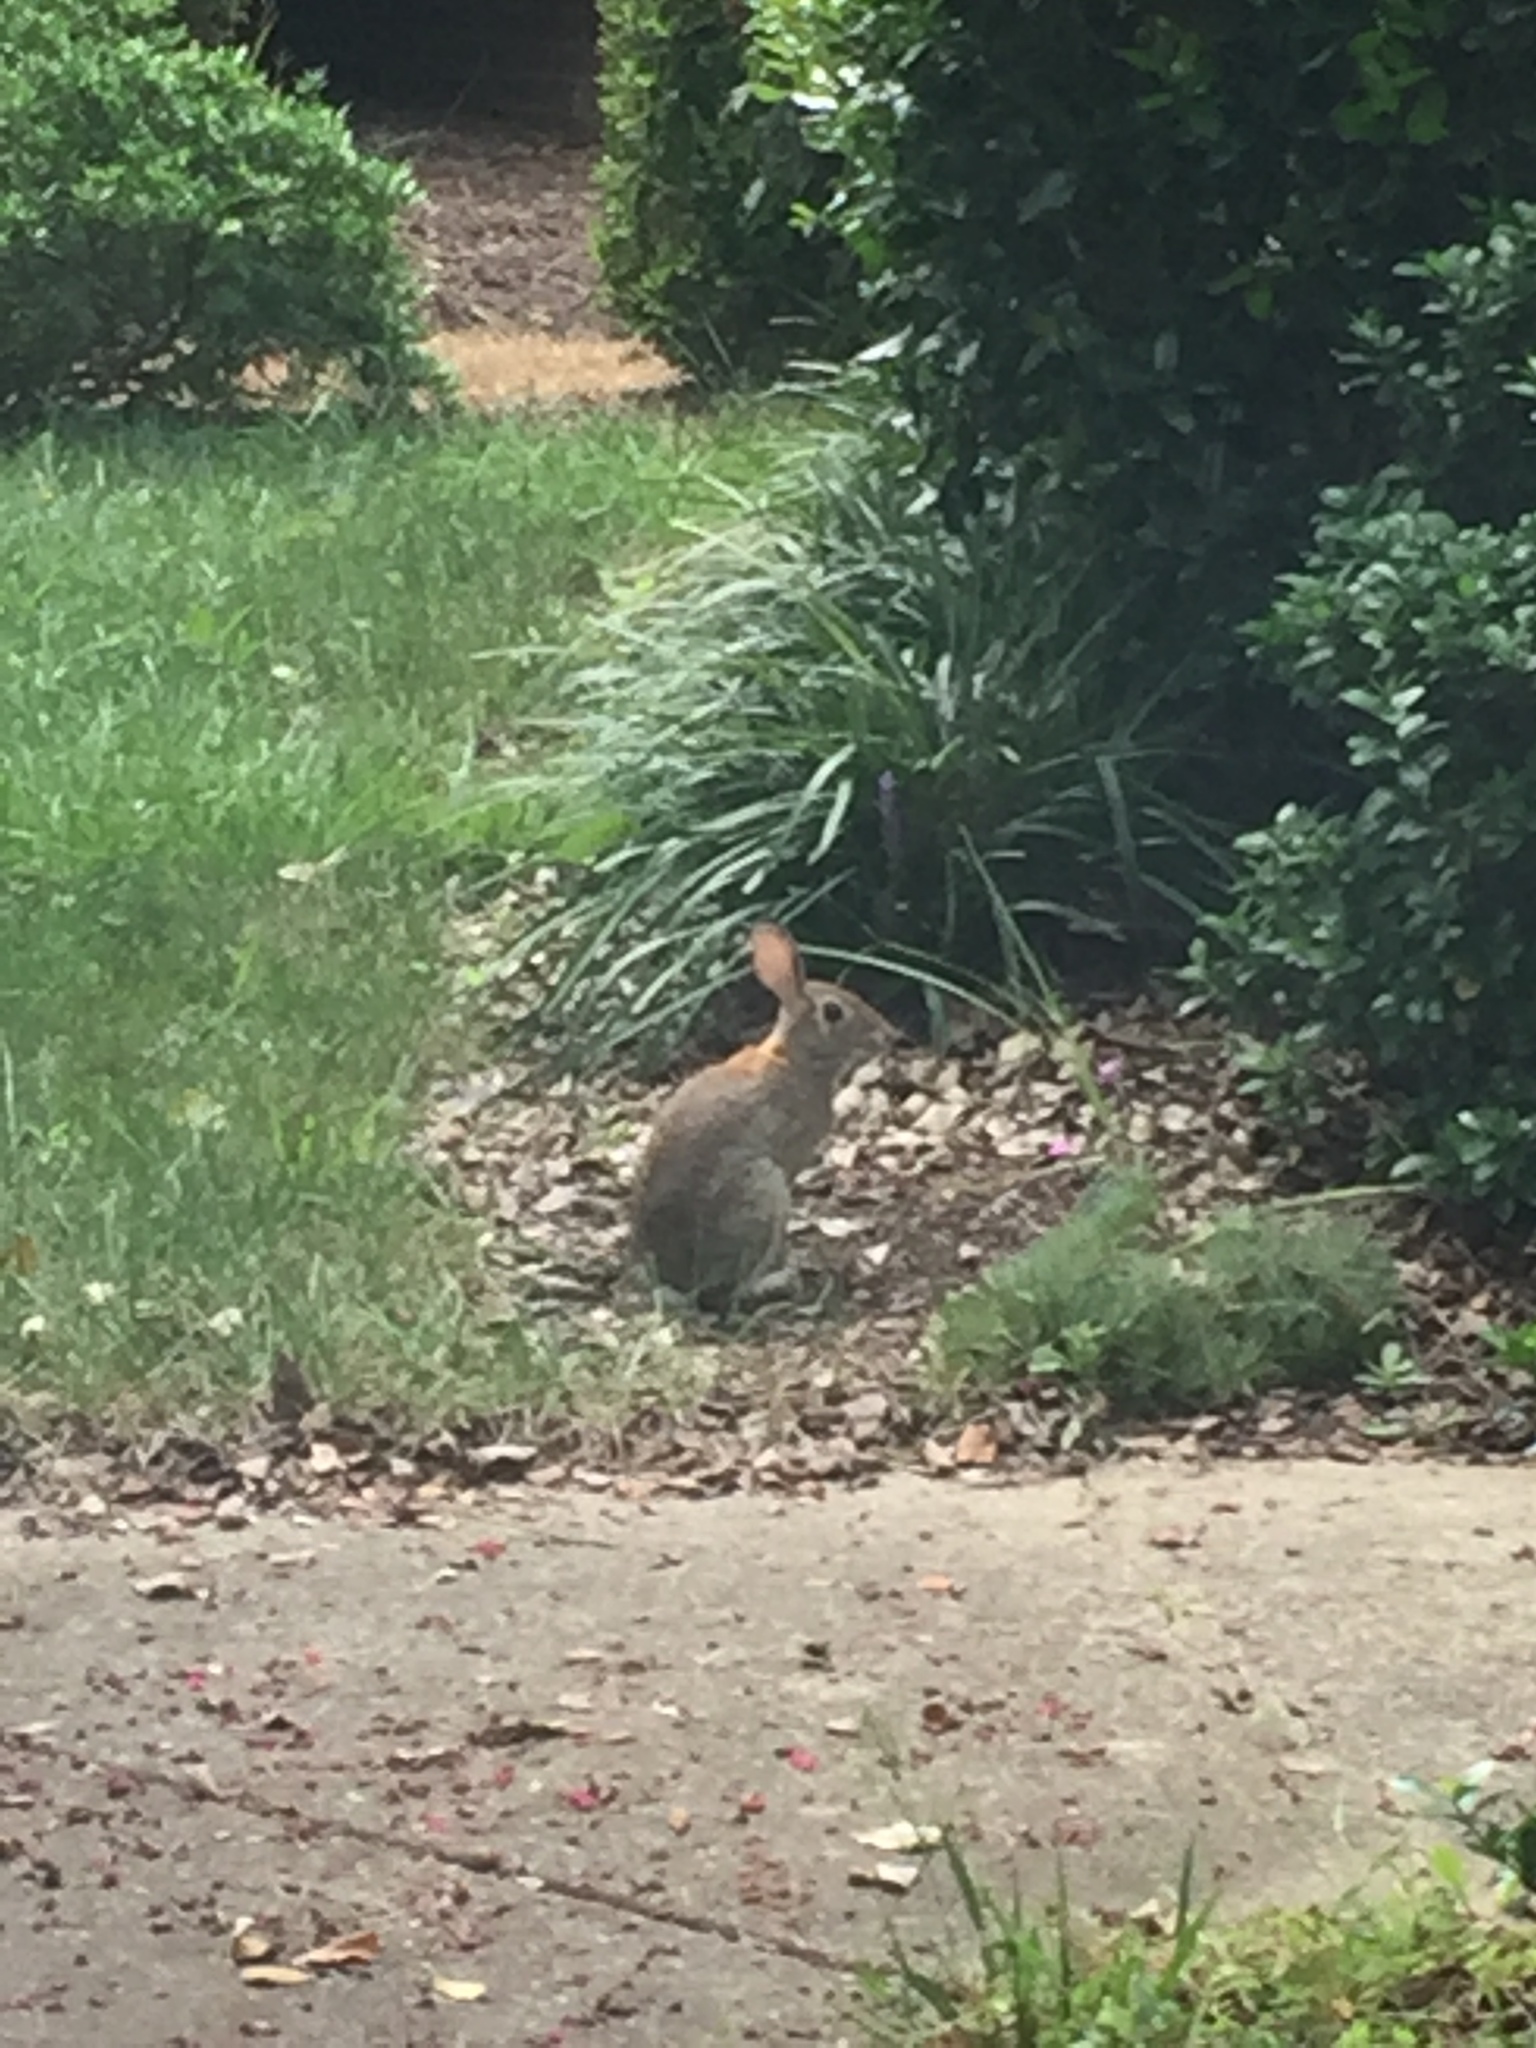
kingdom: Animalia
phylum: Chordata
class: Mammalia
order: Lagomorpha
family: Leporidae
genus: Sylvilagus
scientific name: Sylvilagus floridanus
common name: Eastern cottontail
